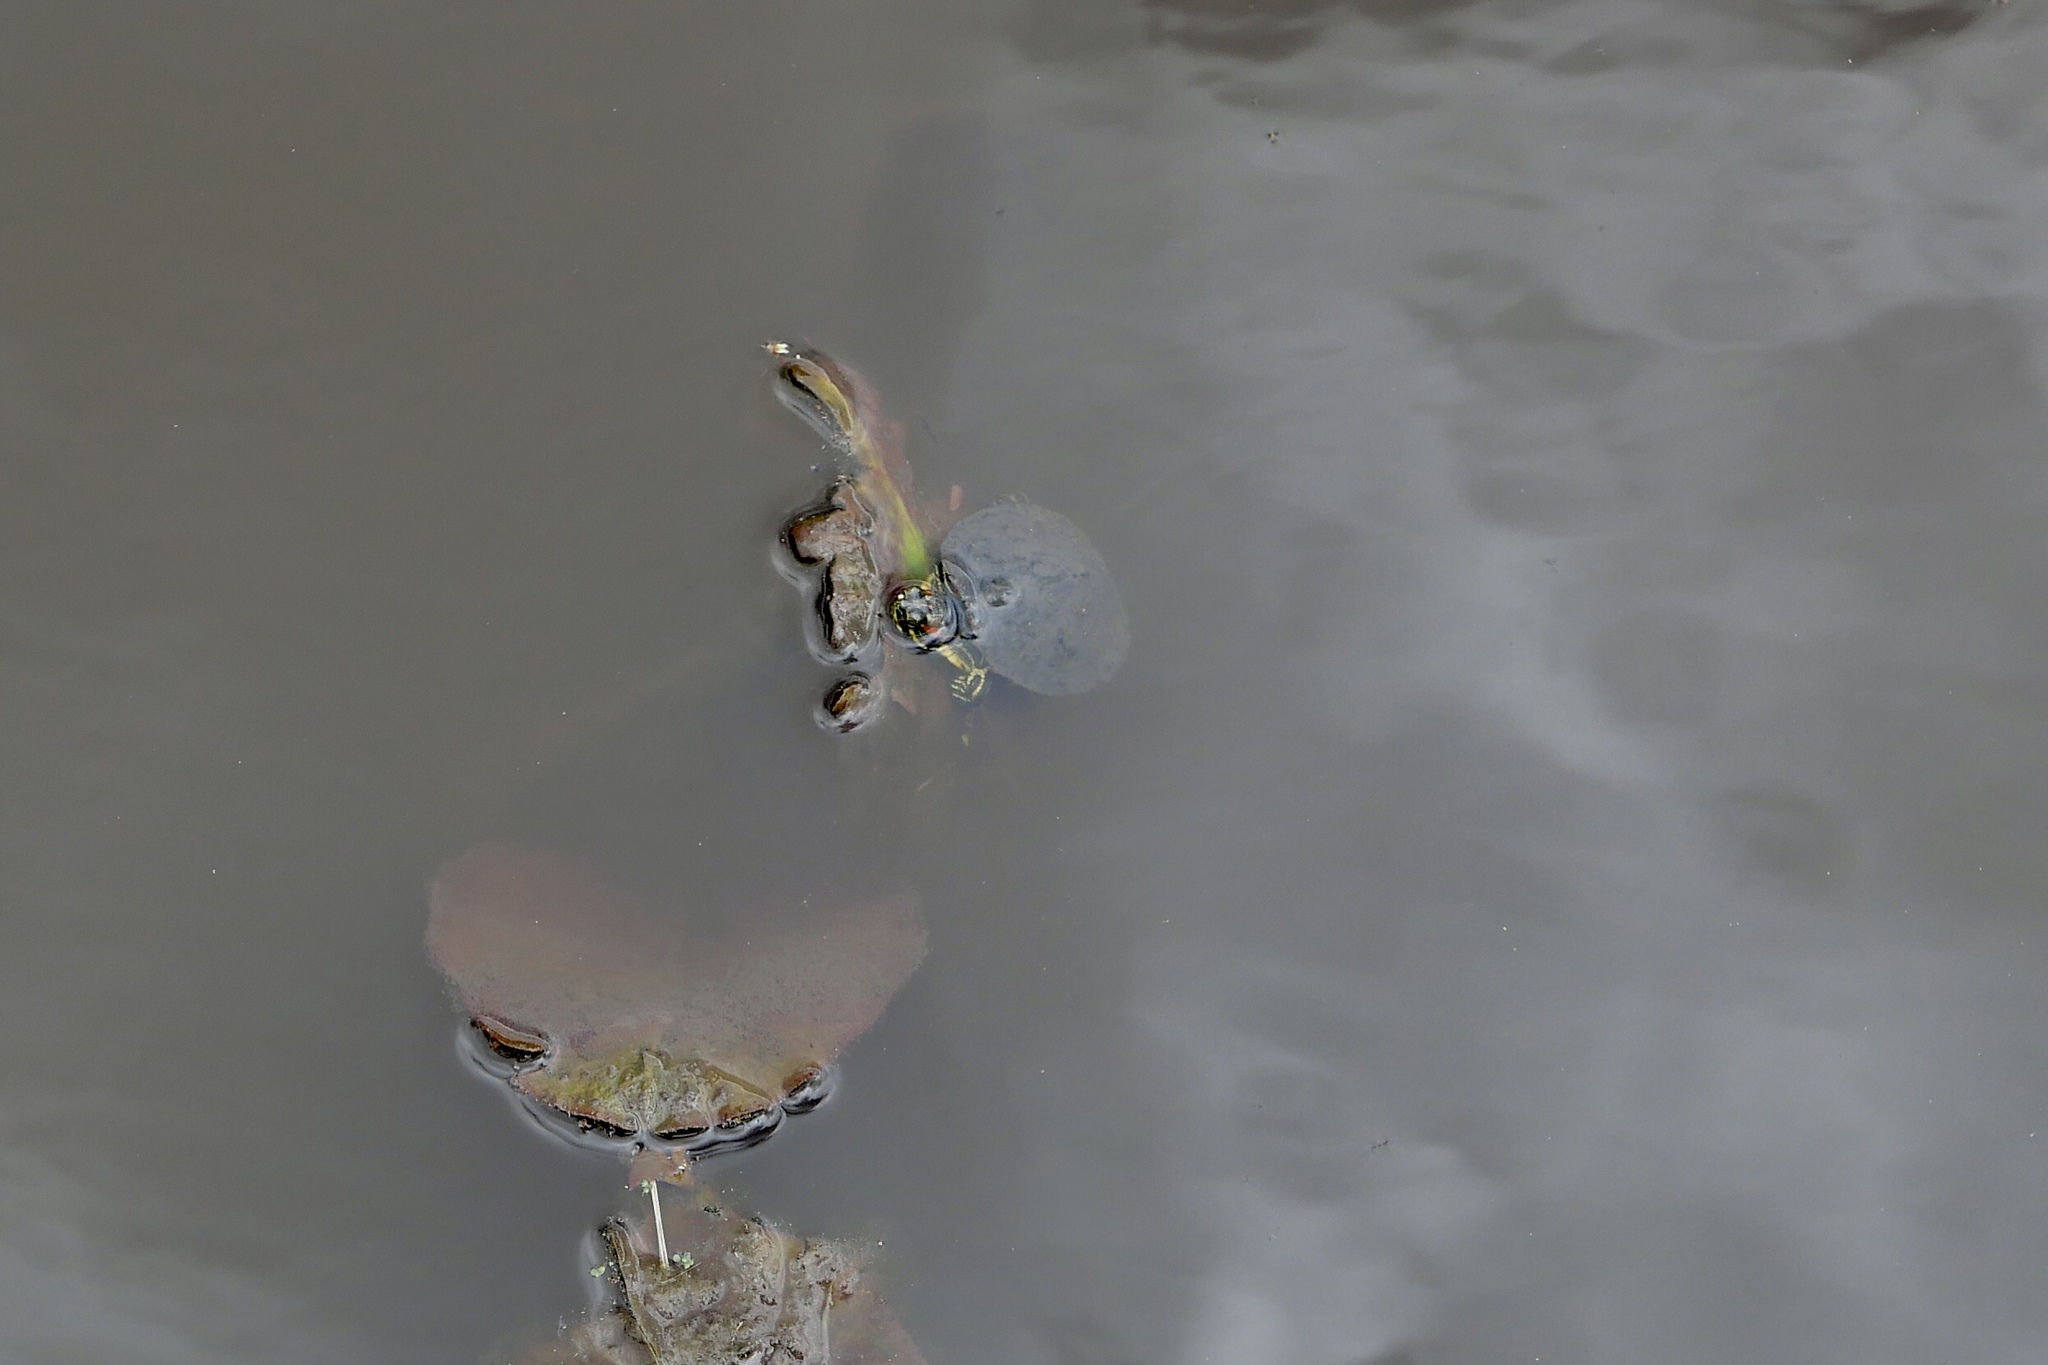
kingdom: Animalia
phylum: Chordata
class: Testudines
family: Emydidae
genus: Trachemys
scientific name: Trachemys scripta
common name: Slider
